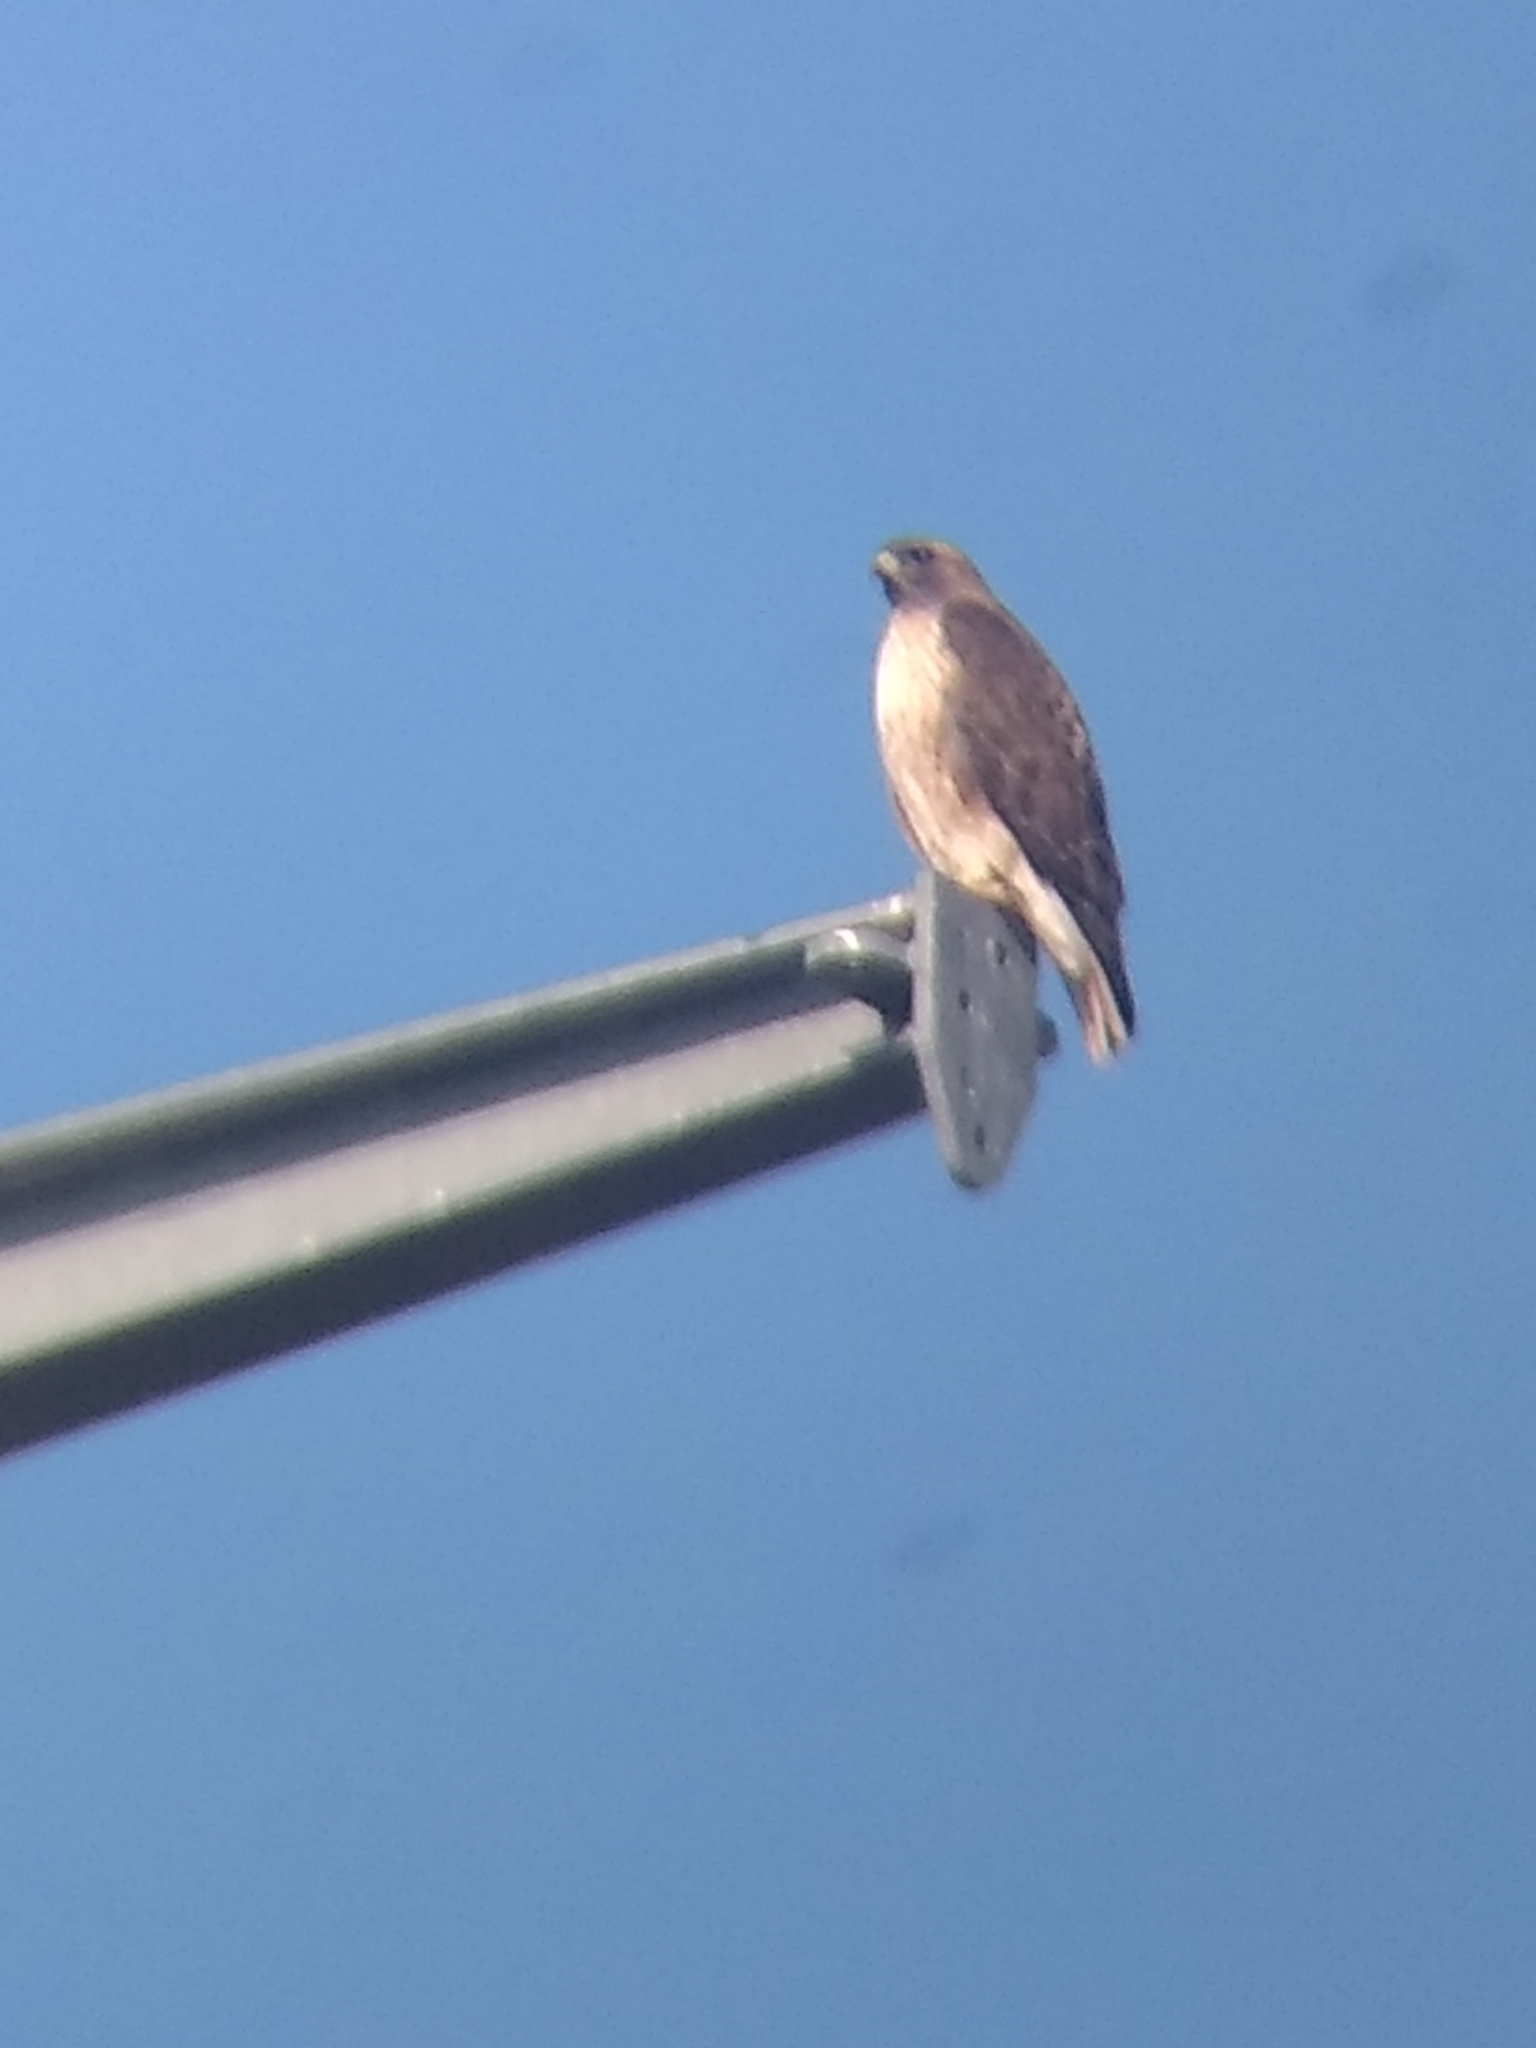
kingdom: Animalia
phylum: Chordata
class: Aves
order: Accipitriformes
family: Accipitridae
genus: Buteo
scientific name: Buteo jamaicensis
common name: Red-tailed hawk
